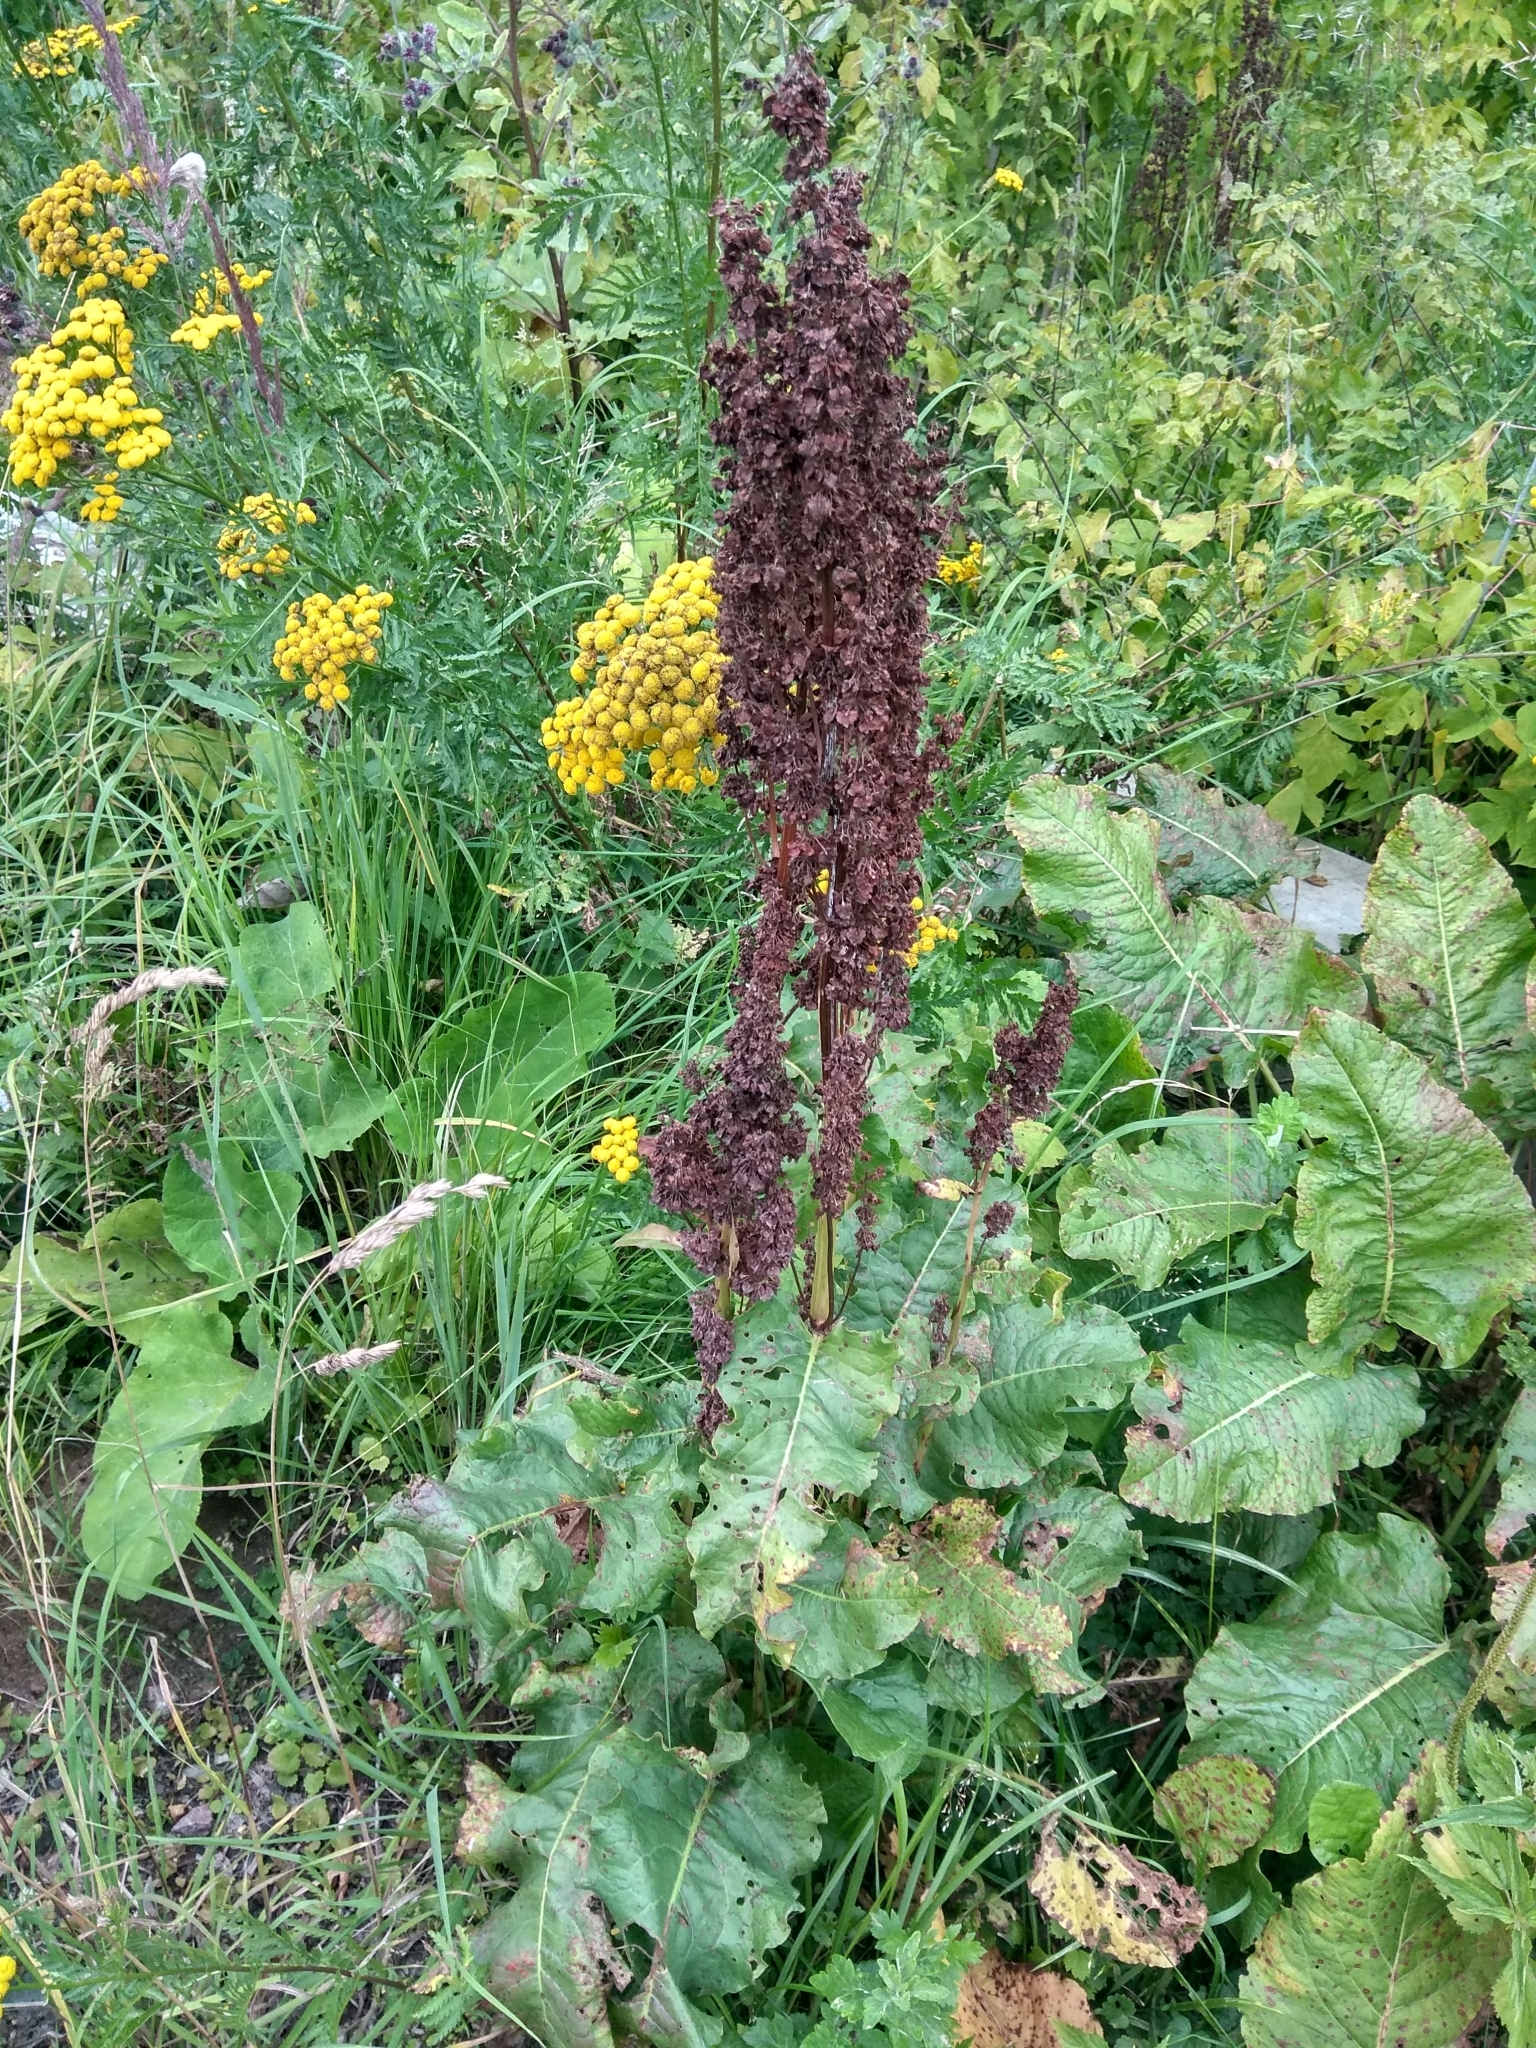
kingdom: Plantae
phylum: Tracheophyta
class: Magnoliopsida
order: Caryophyllales
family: Polygonaceae
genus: Rumex
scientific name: Rumex confertus
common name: Russian dock
